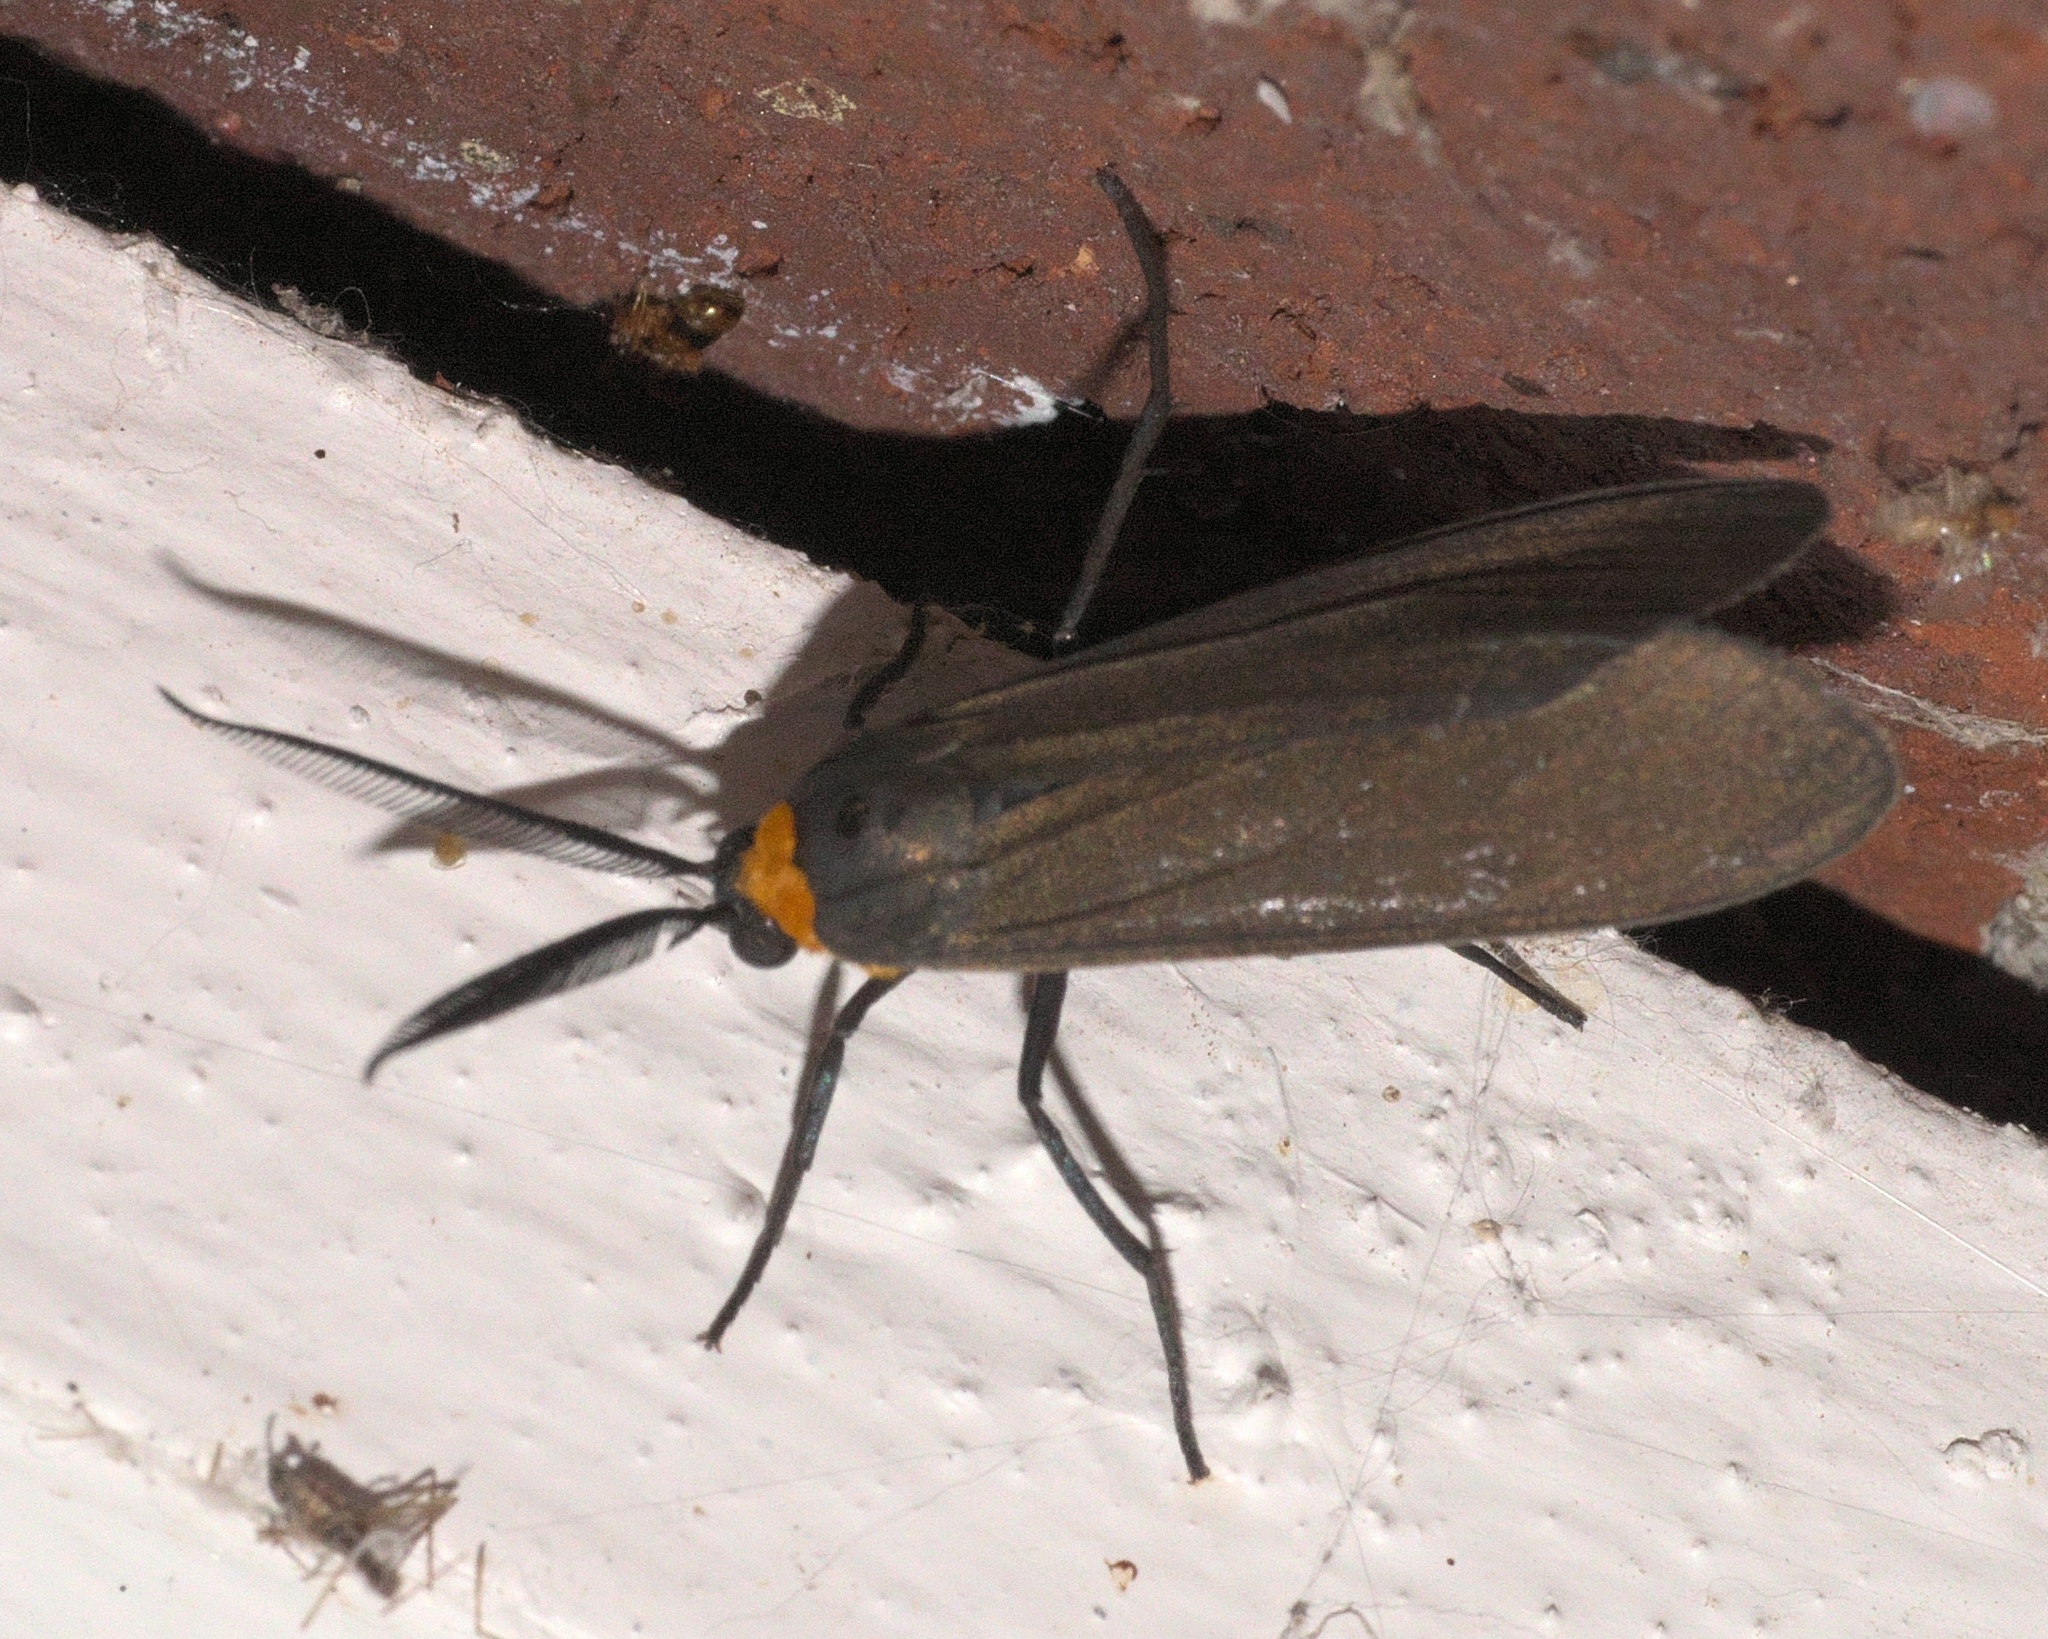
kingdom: Animalia
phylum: Arthropoda
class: Insecta
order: Lepidoptera
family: Erebidae
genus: Cisseps
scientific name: Cisseps fulvicollis
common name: Yellow-collared scape moth
